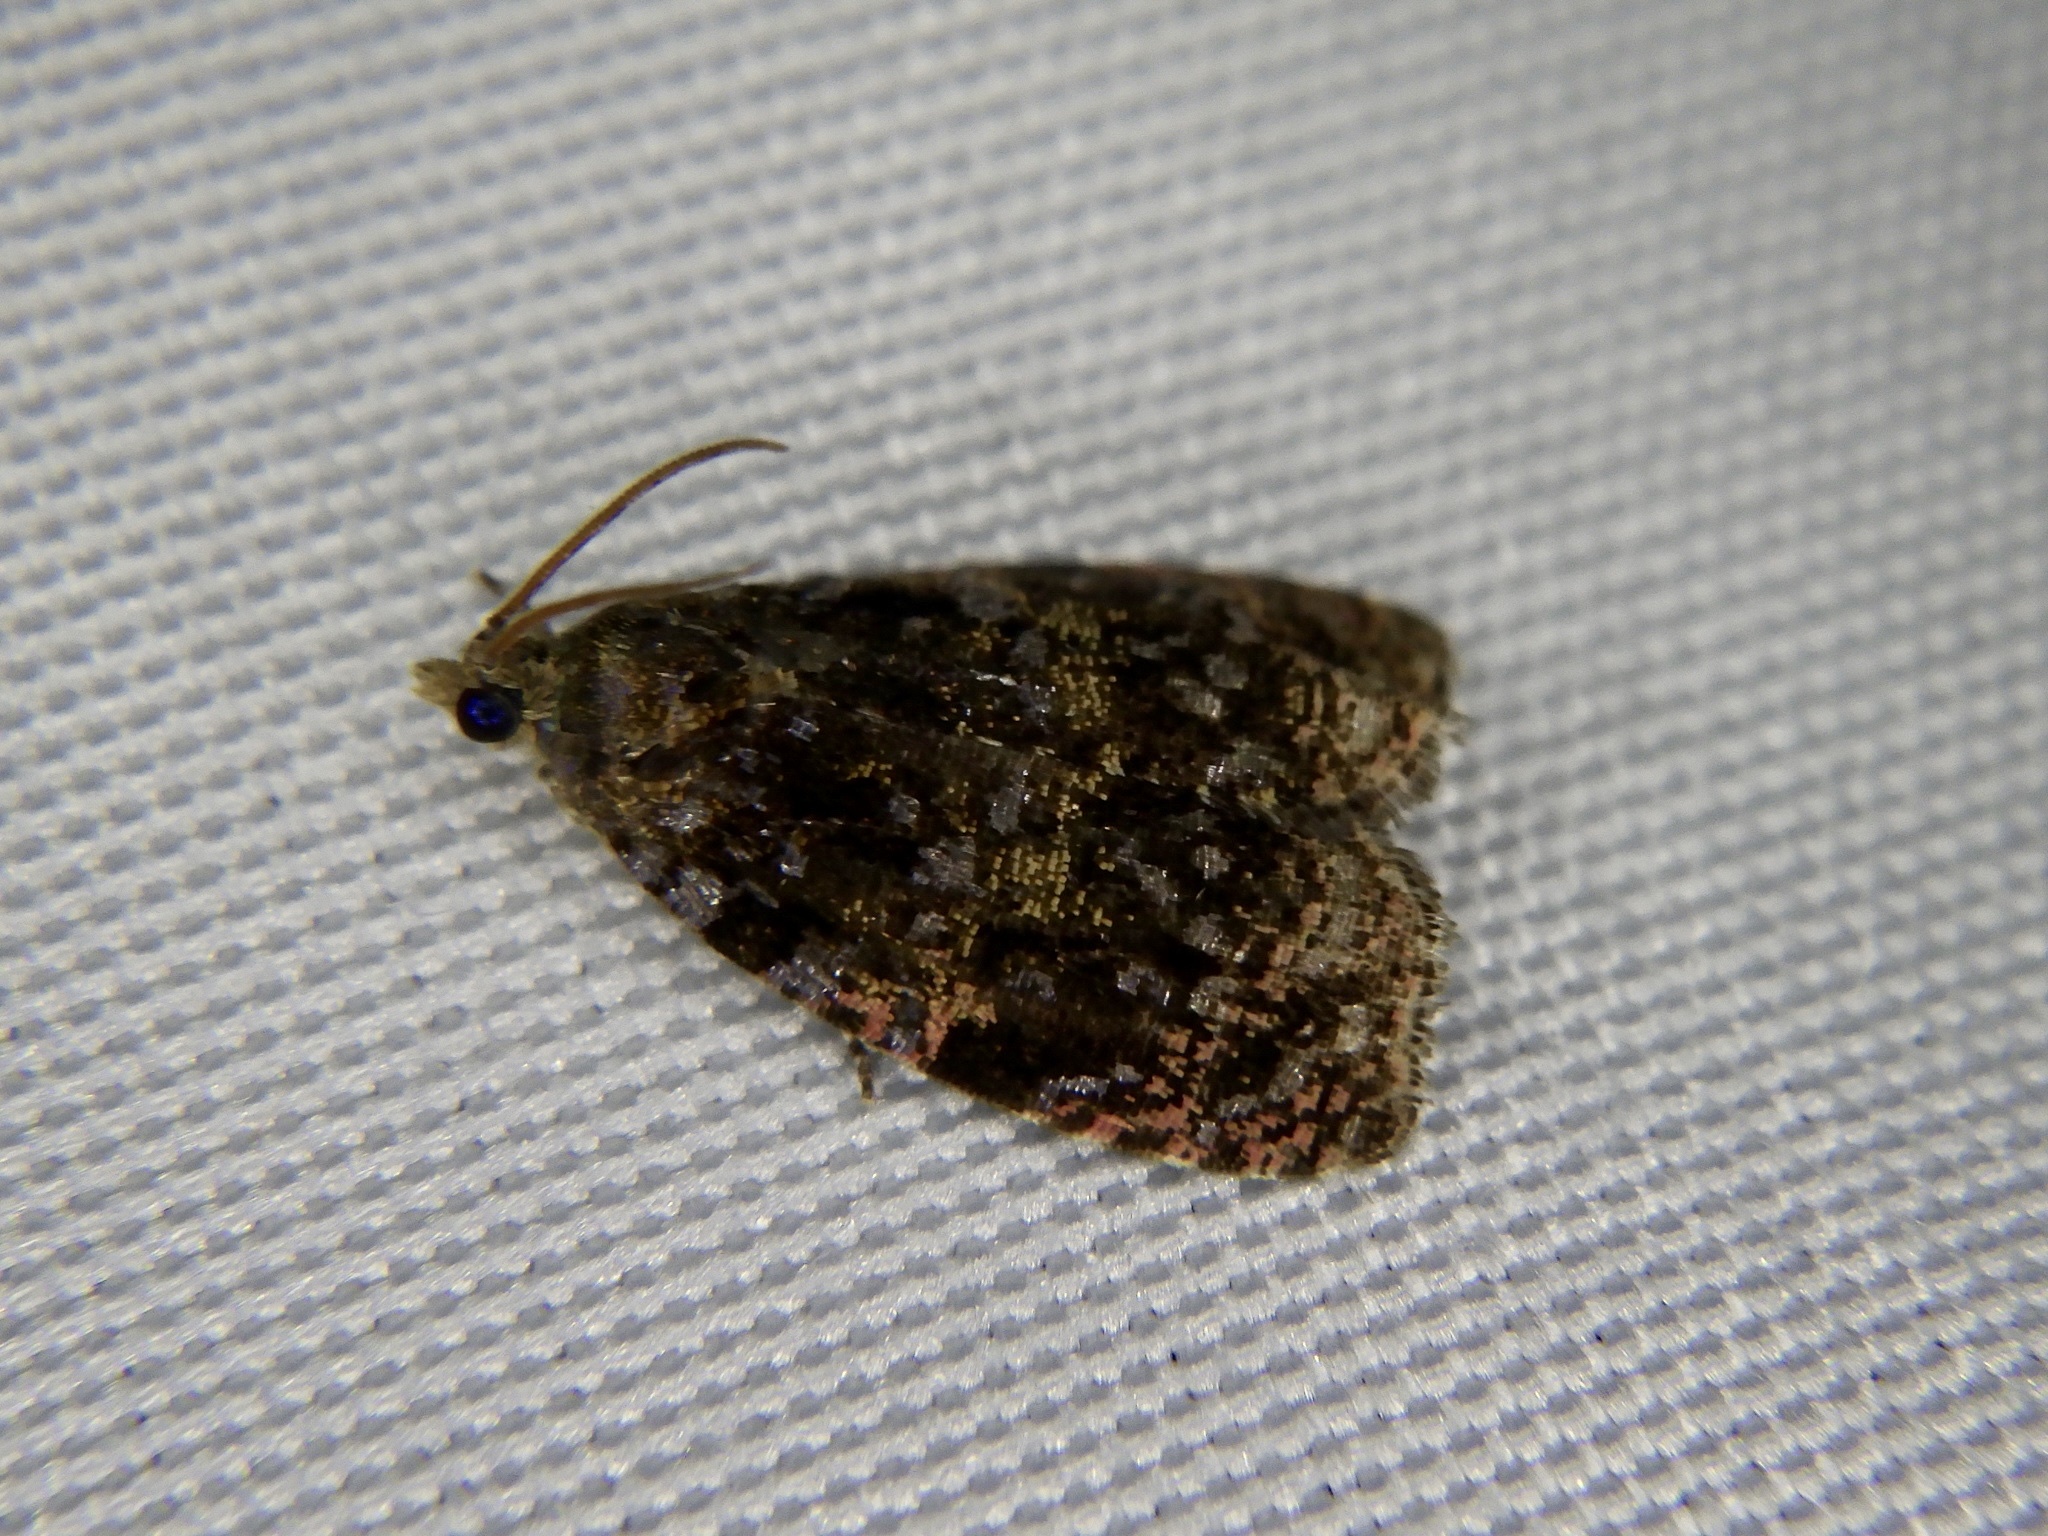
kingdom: Animalia
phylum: Arthropoda
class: Insecta
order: Lepidoptera
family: Tortricidae
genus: Ukamenia
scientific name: Ukamenia sapporensis
